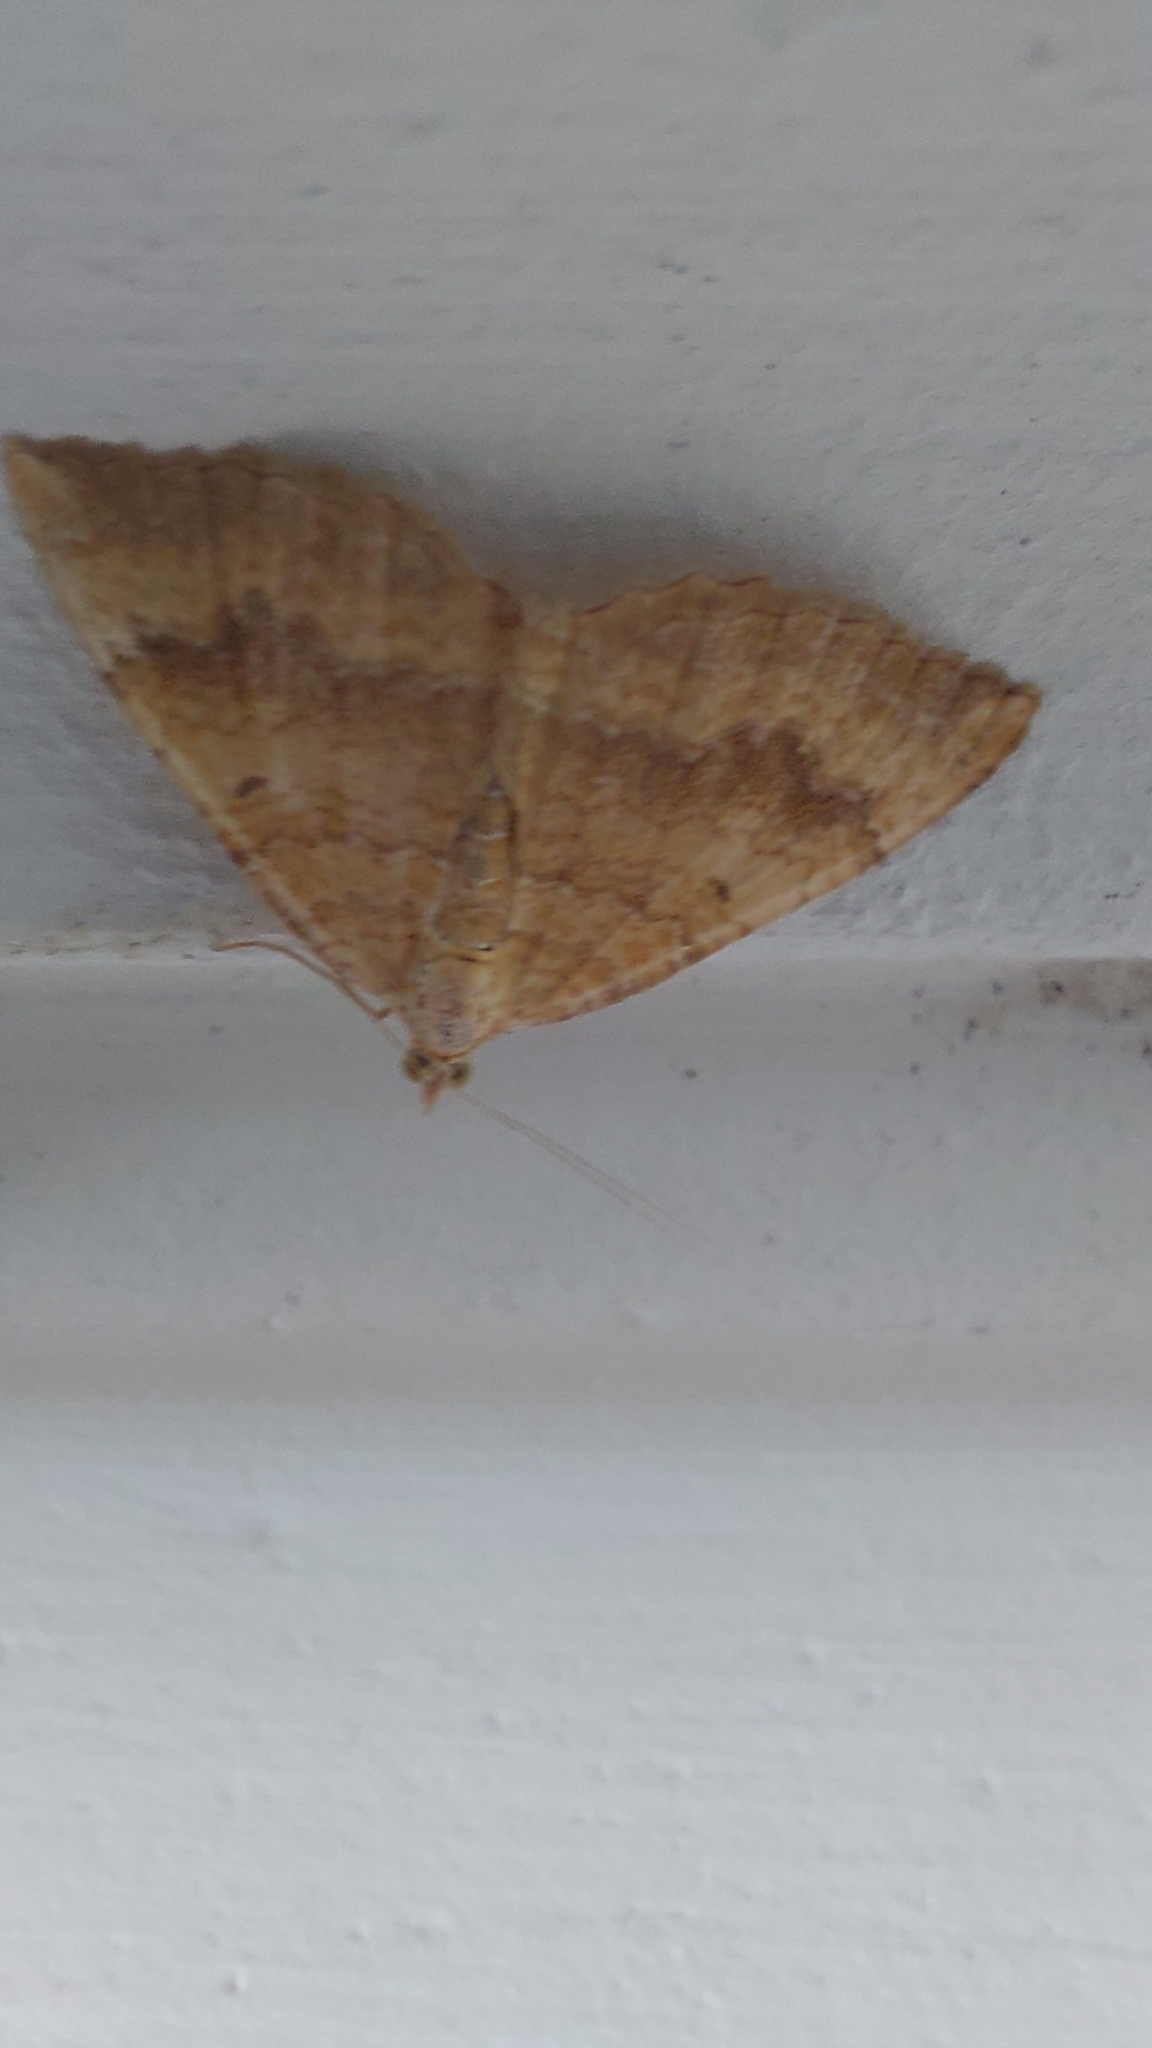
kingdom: Animalia
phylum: Arthropoda
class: Insecta
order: Lepidoptera
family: Geometridae
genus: Camptogramma
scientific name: Camptogramma bilineata
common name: Yellow shell
